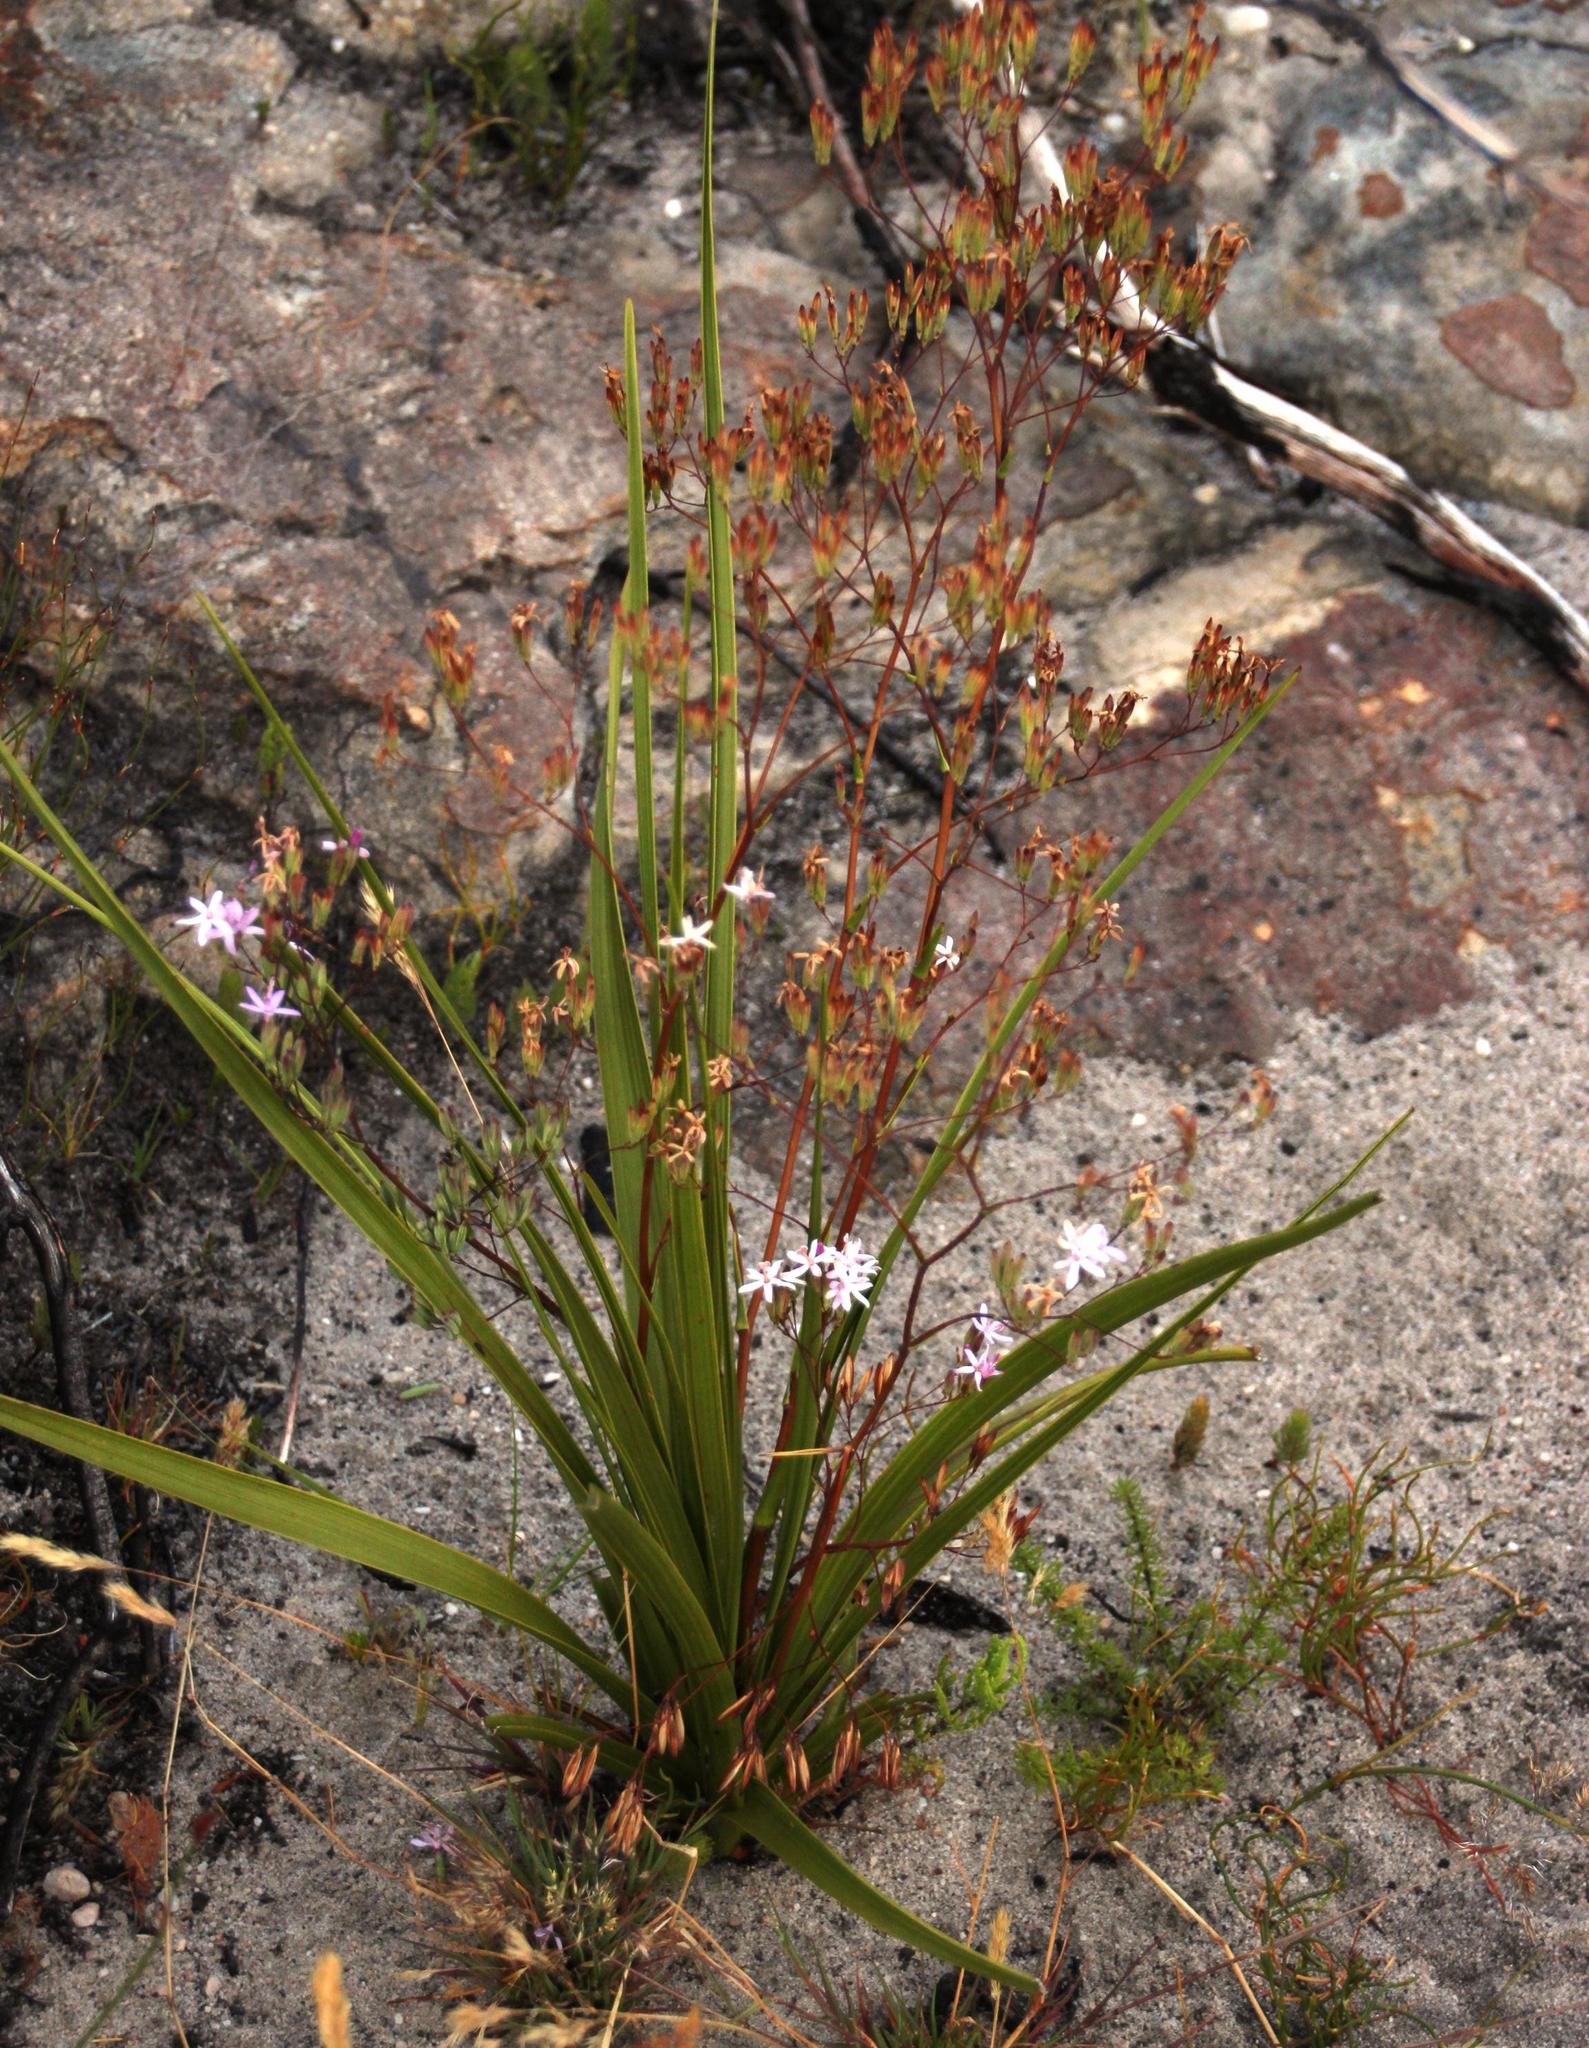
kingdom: Plantae
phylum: Tracheophyta
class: Magnoliopsida
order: Asterales
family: Asteraceae
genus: Corymbium
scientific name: Corymbium glabrum
